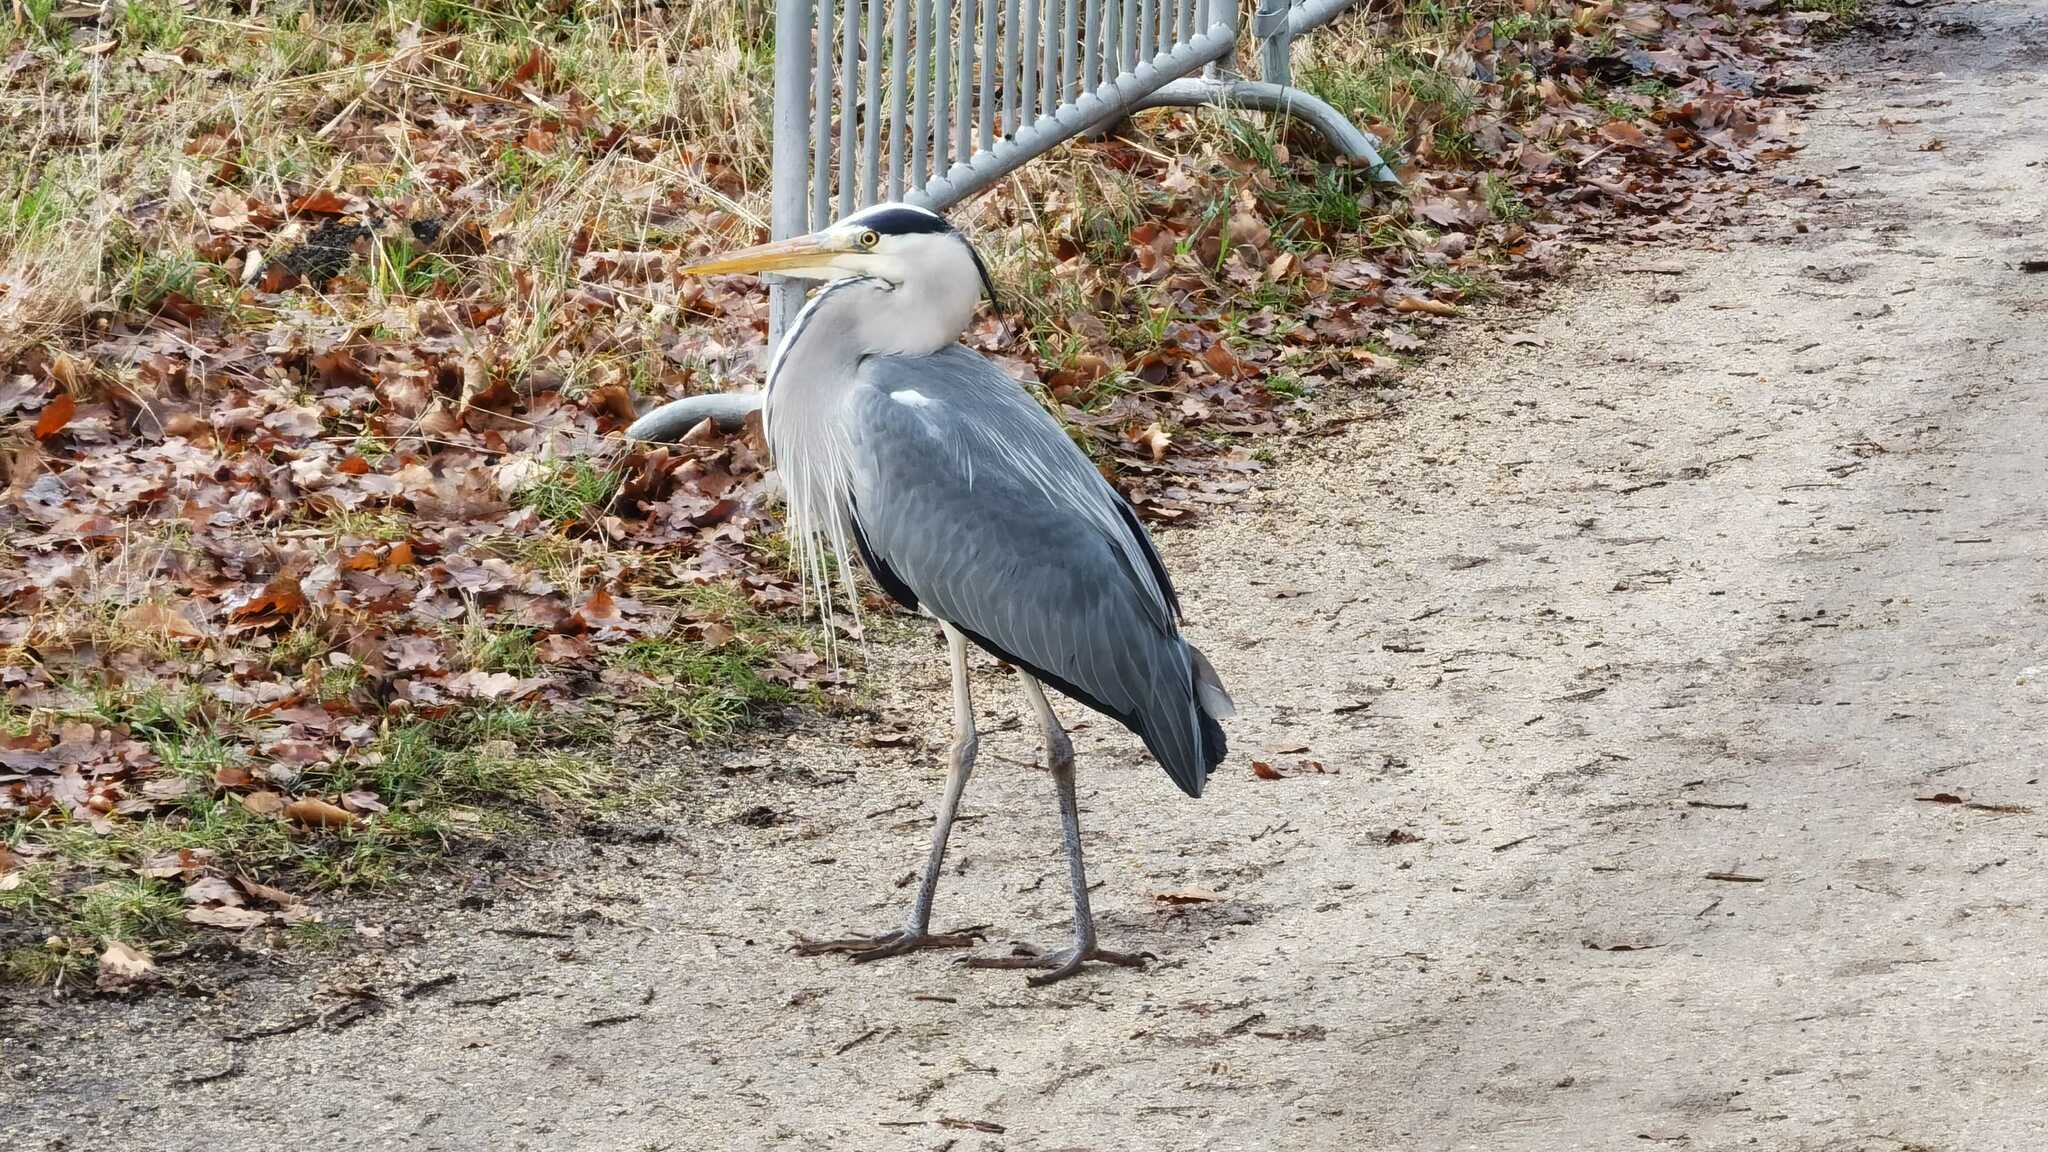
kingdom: Animalia
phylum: Chordata
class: Aves
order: Pelecaniformes
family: Ardeidae
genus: Ardea
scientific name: Ardea cinerea
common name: Grey heron
